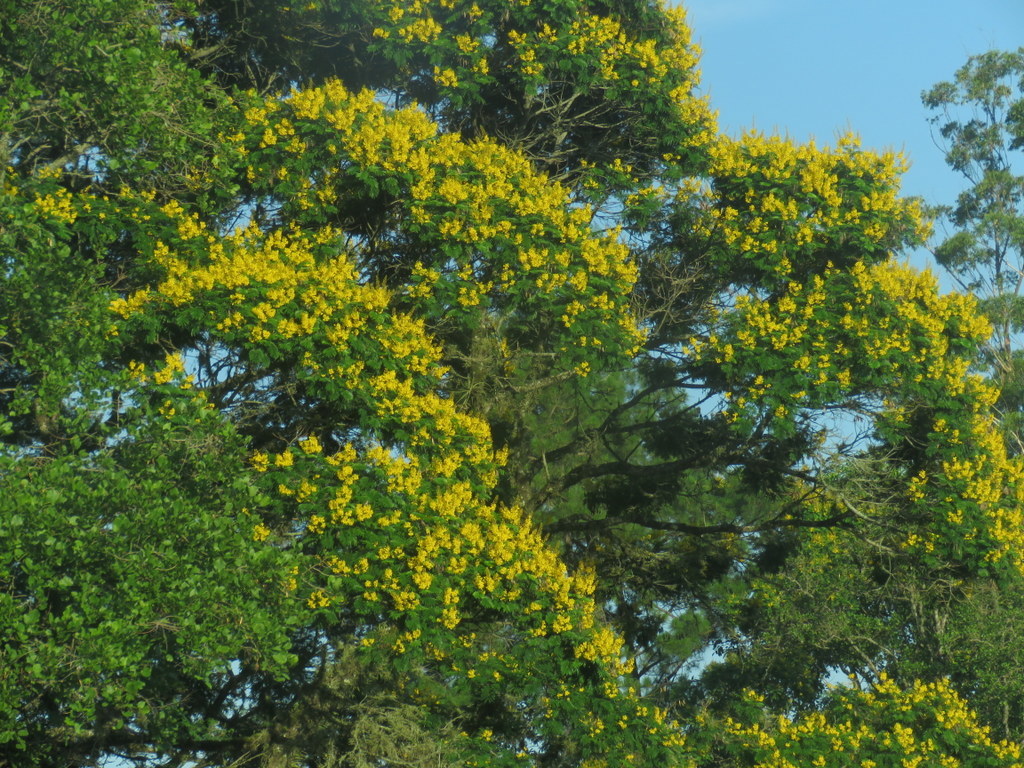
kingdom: Plantae
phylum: Tracheophyta
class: Magnoliopsida
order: Fabales
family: Fabaceae
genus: Peltophorum
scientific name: Peltophorum dubium
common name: Horsebush
